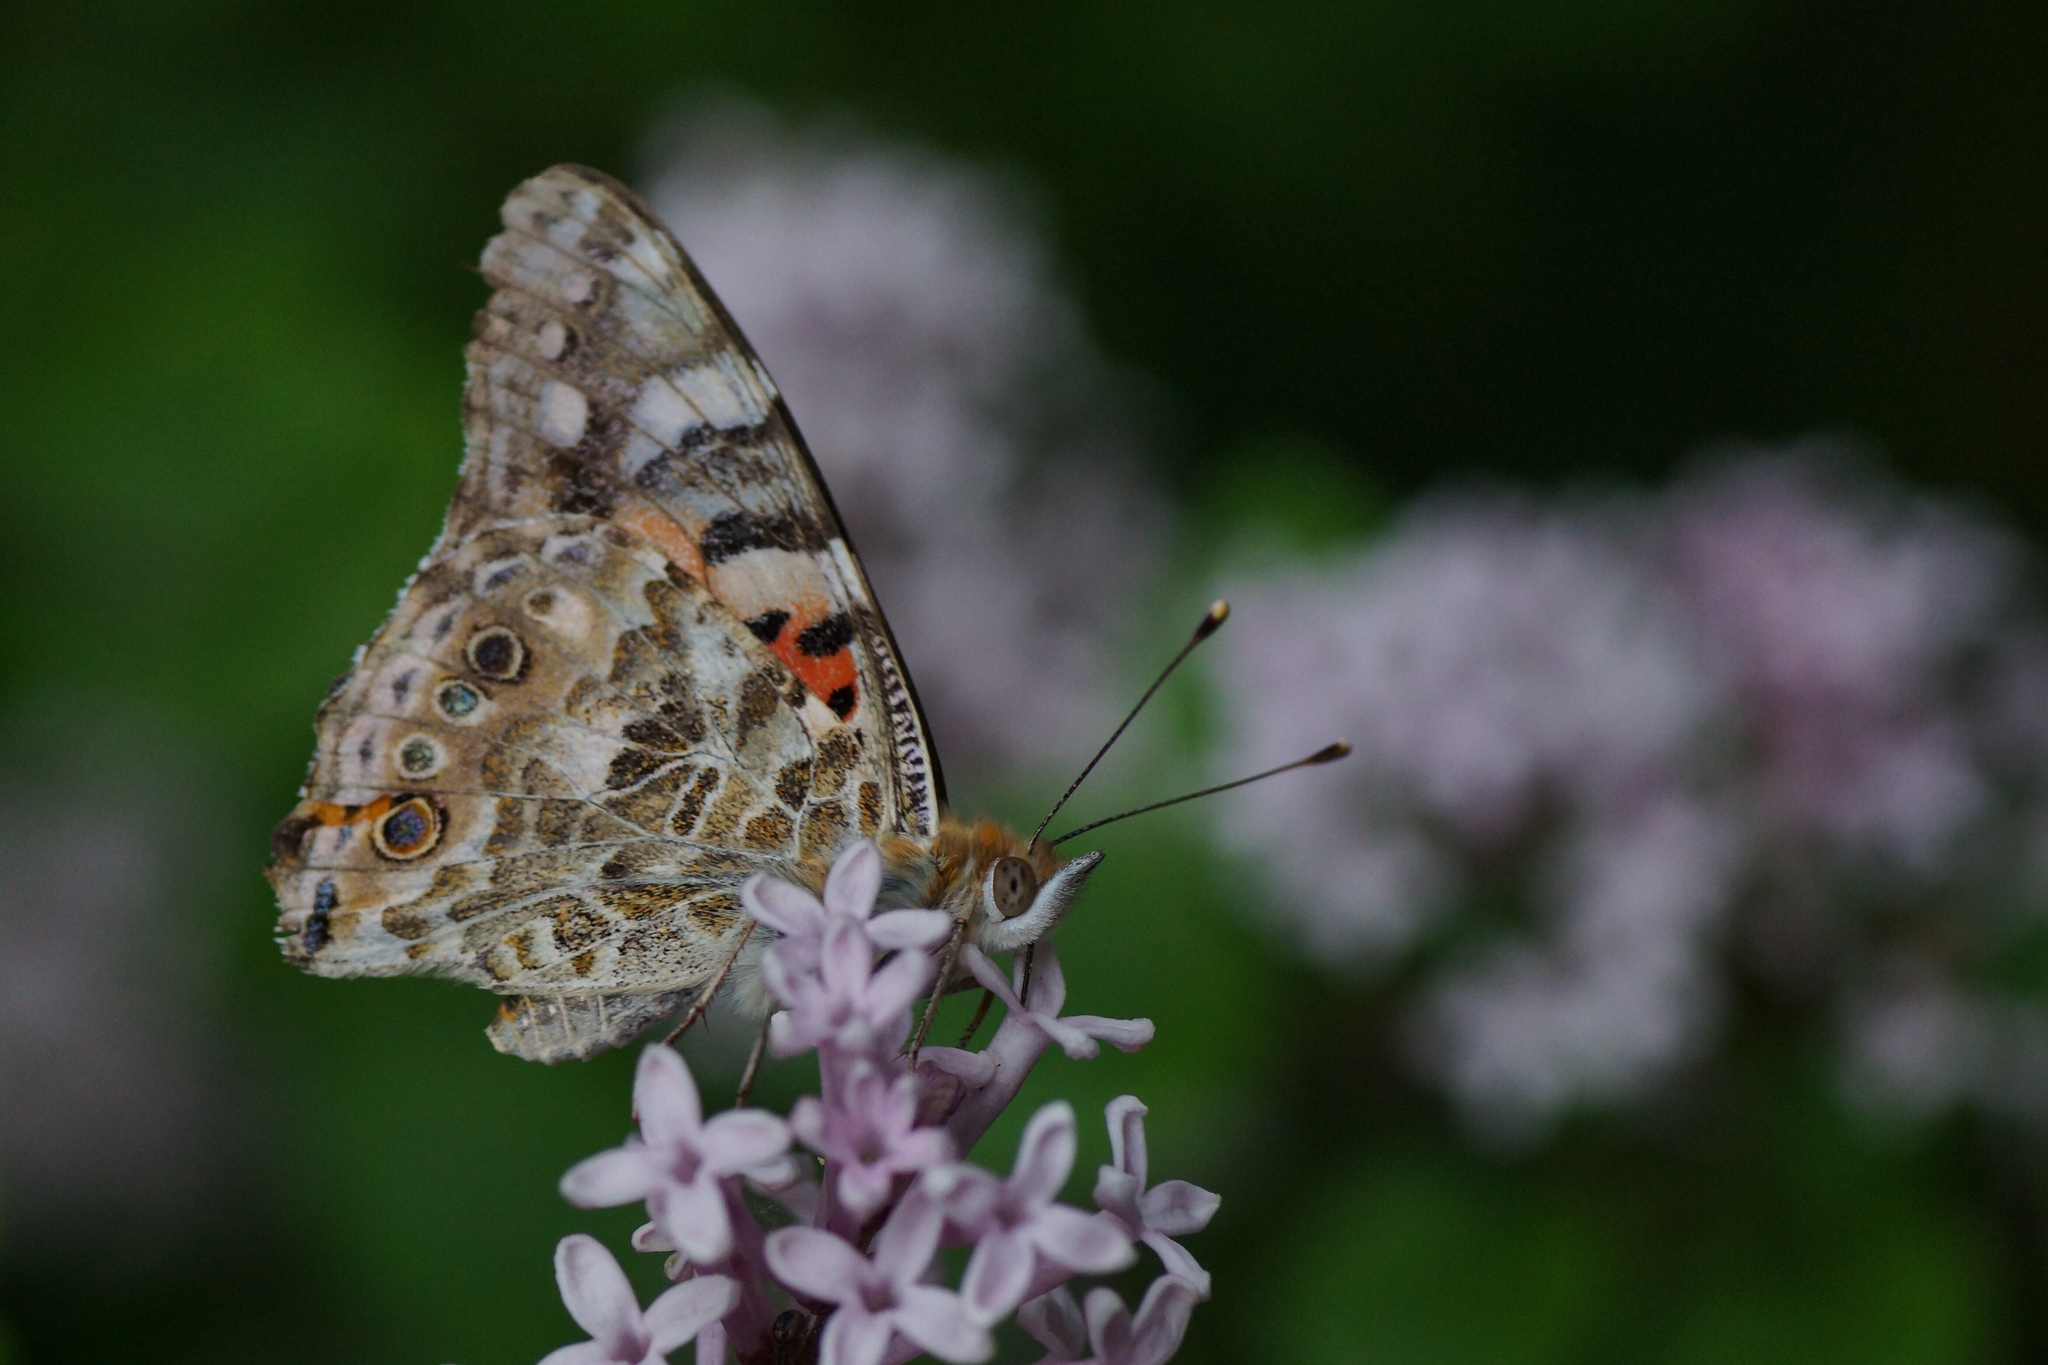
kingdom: Animalia
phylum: Arthropoda
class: Insecta
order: Lepidoptera
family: Nymphalidae
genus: Vanessa
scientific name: Vanessa cardui
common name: Painted lady
